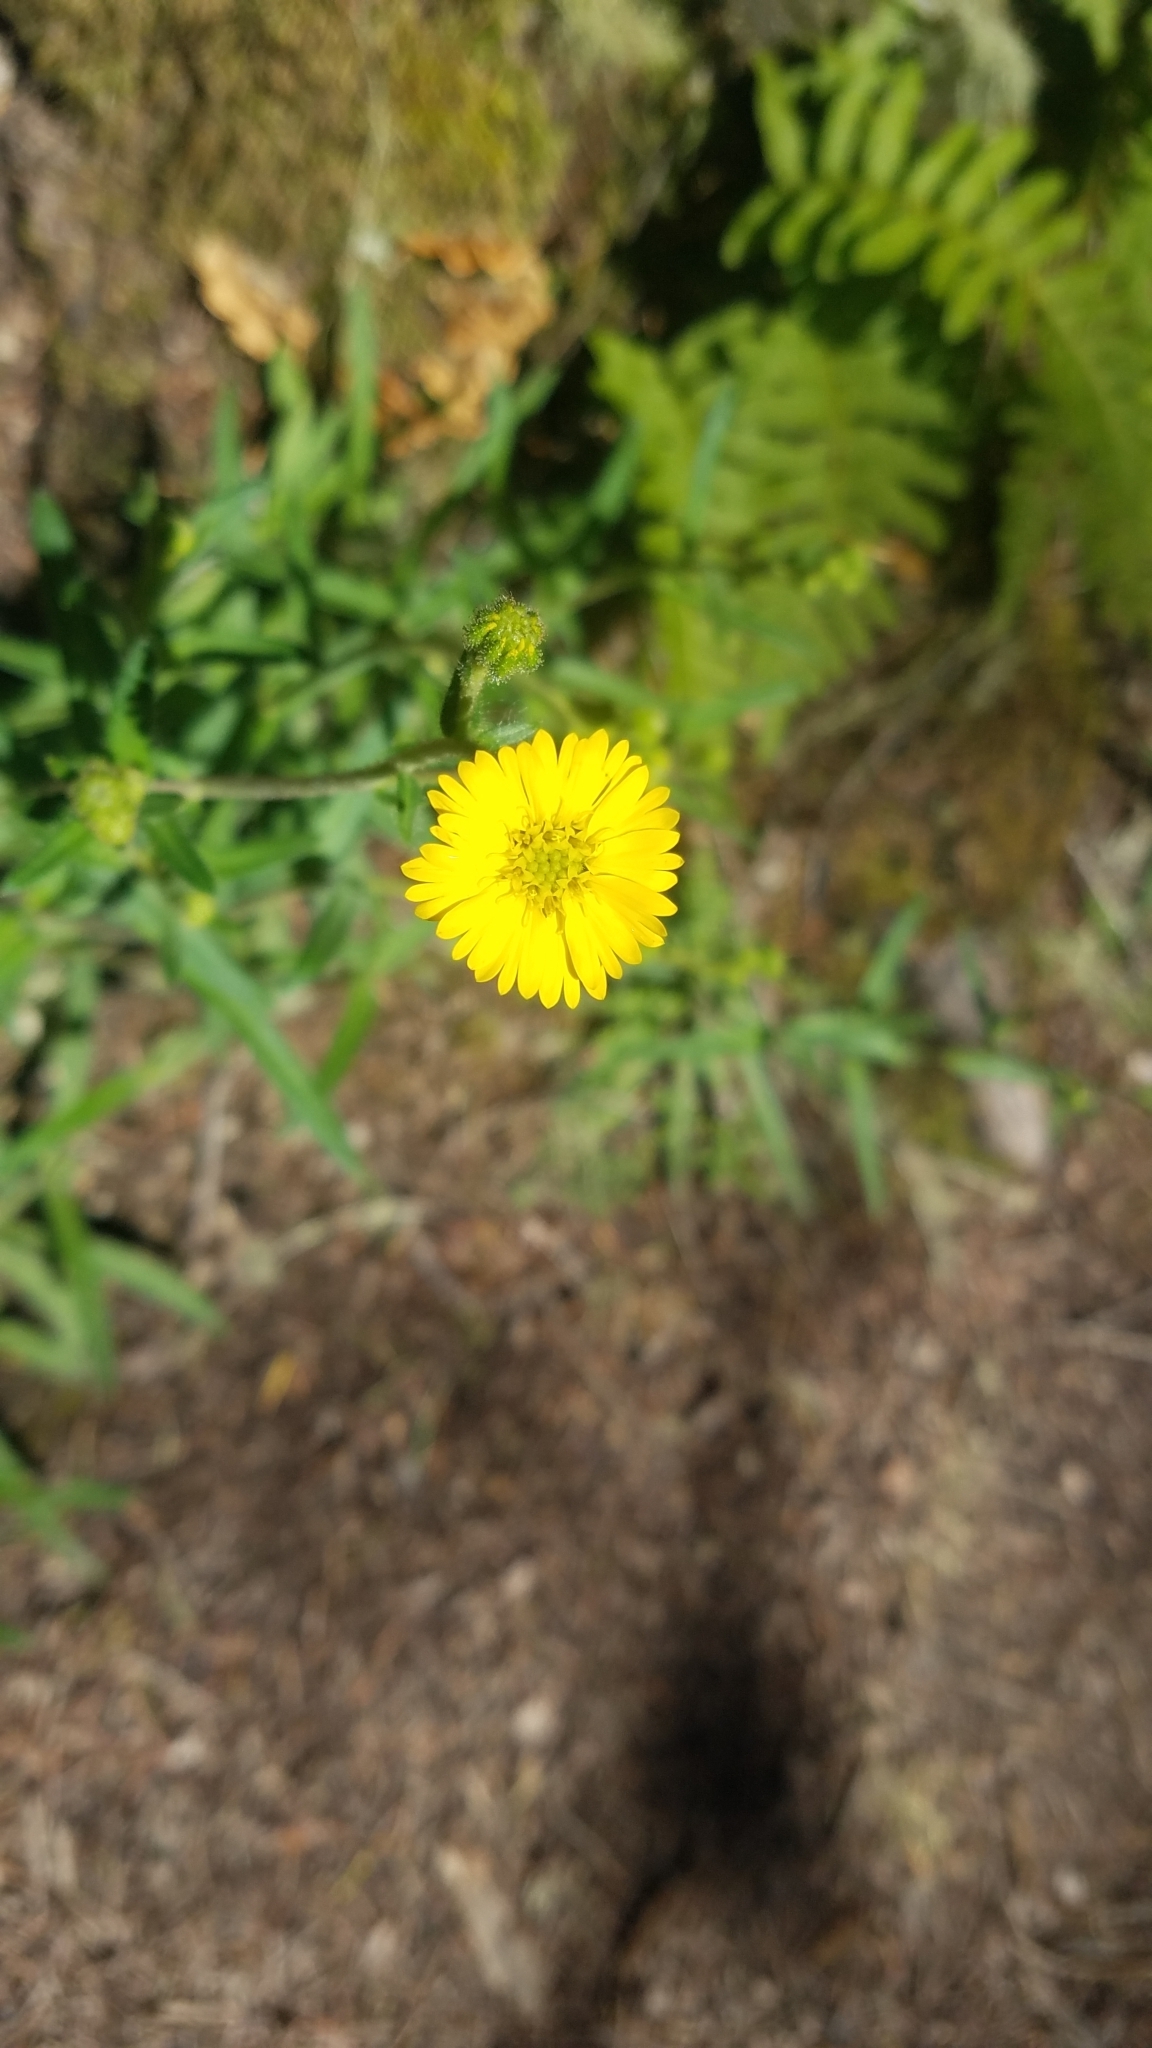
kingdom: Plantae
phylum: Tracheophyta
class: Magnoliopsida
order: Asterales
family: Asteraceae
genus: Anisocarpus
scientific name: Anisocarpus madioides
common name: Woodland madia
